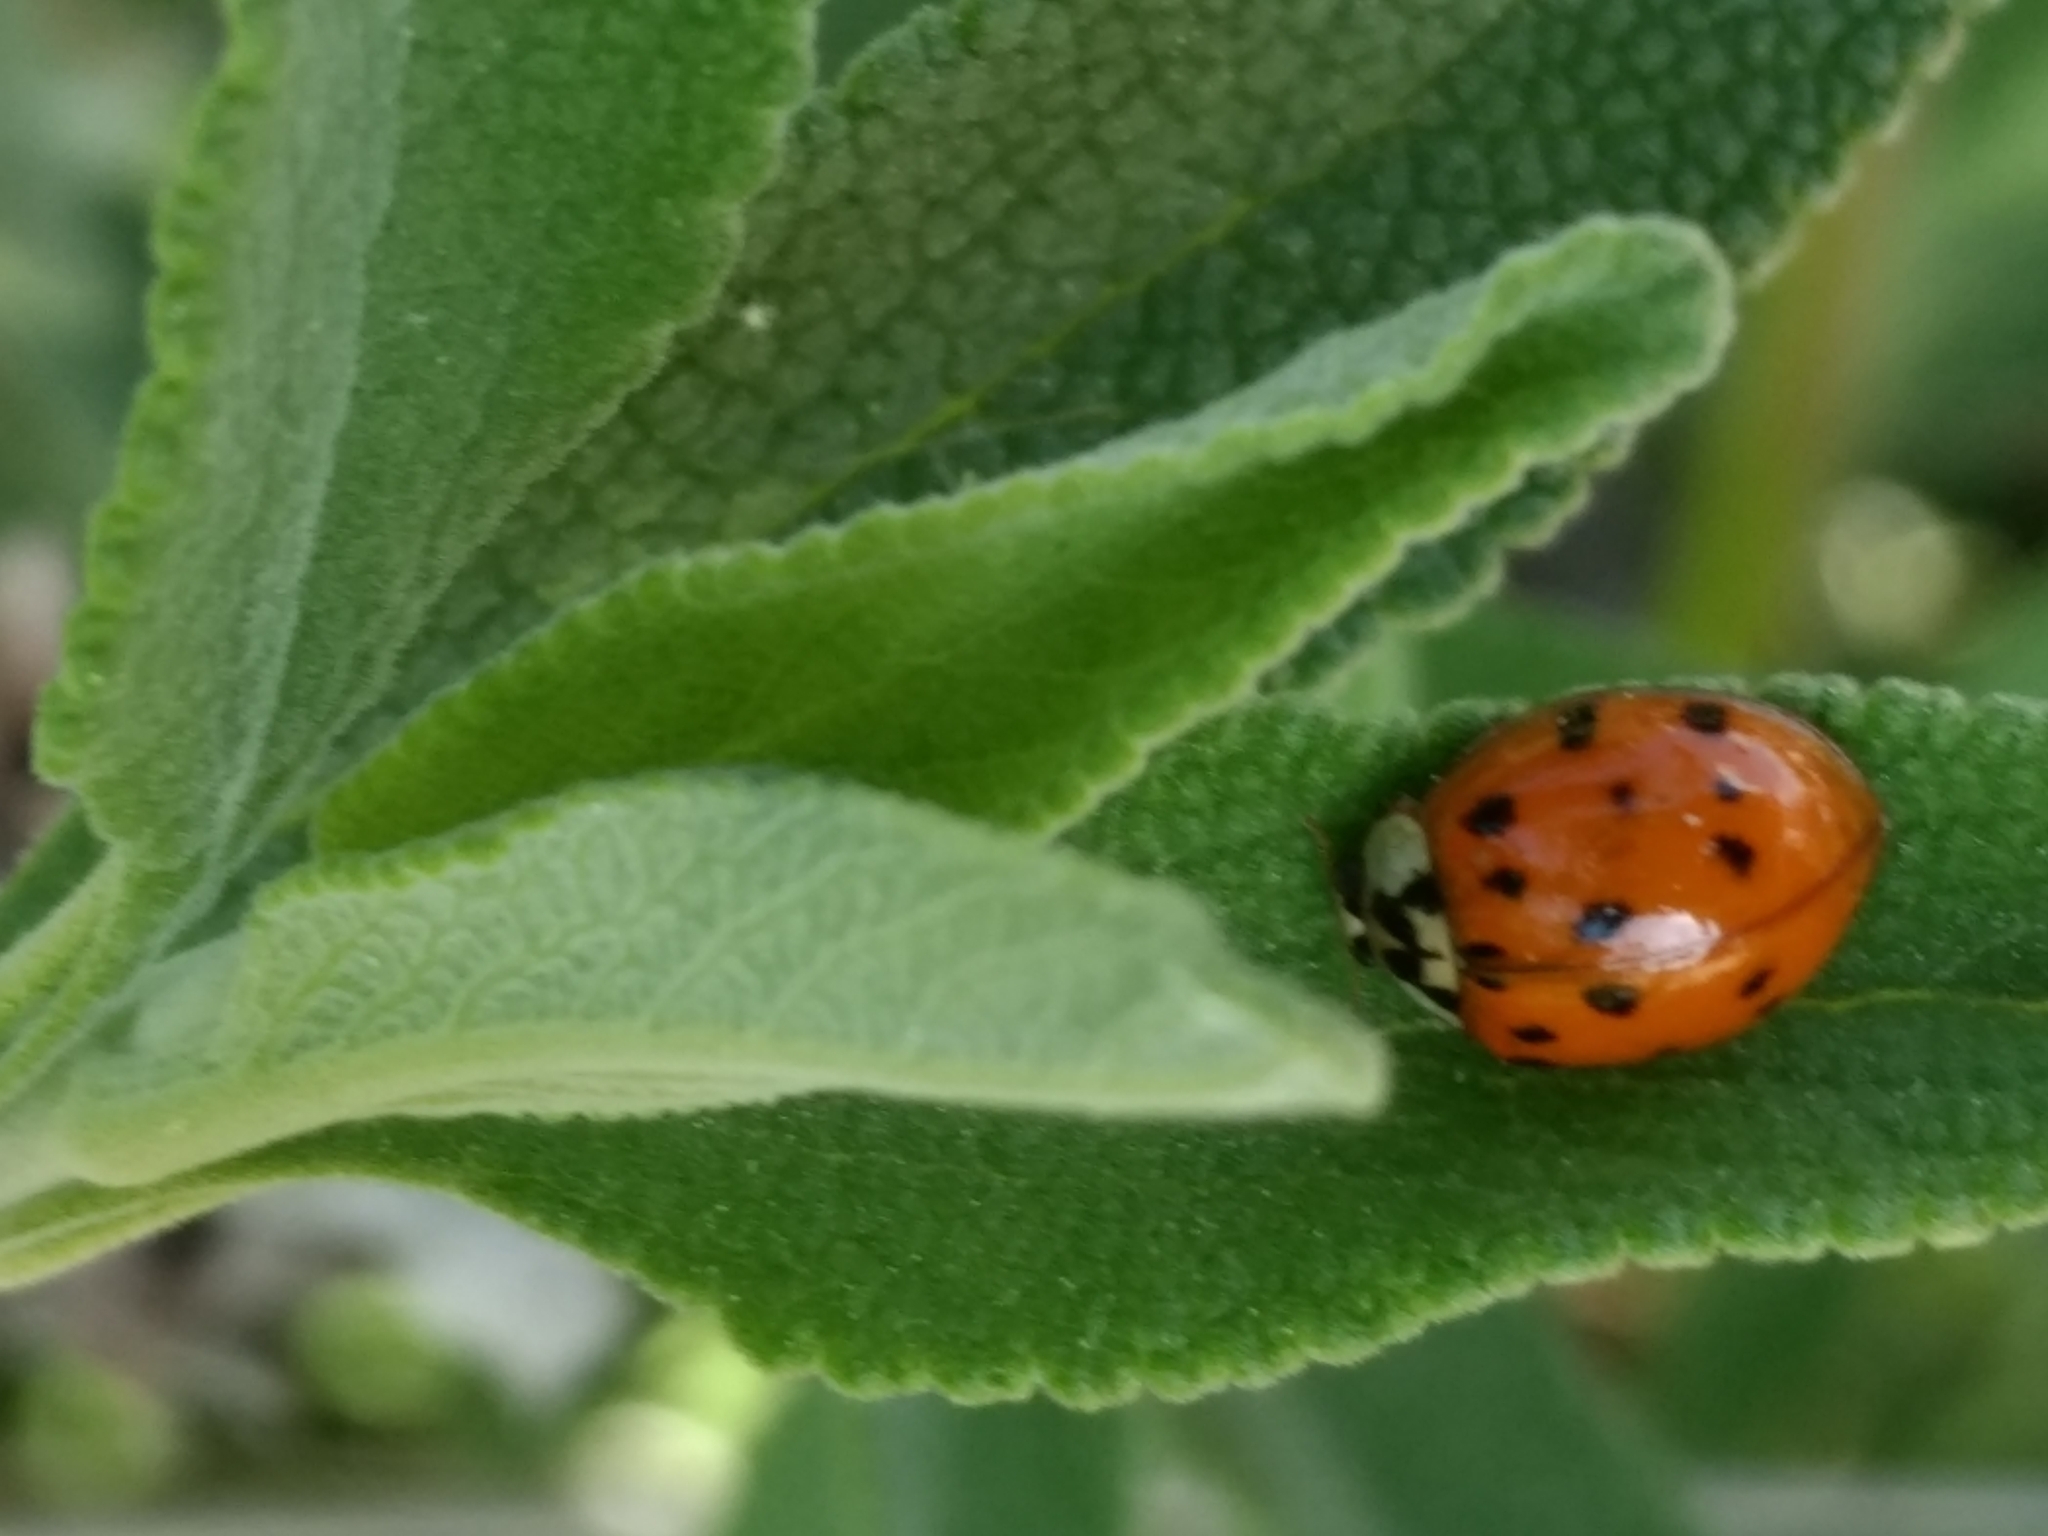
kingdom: Animalia
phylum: Arthropoda
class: Insecta
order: Coleoptera
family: Coccinellidae
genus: Harmonia
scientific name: Harmonia axyridis
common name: Harlequin ladybird
